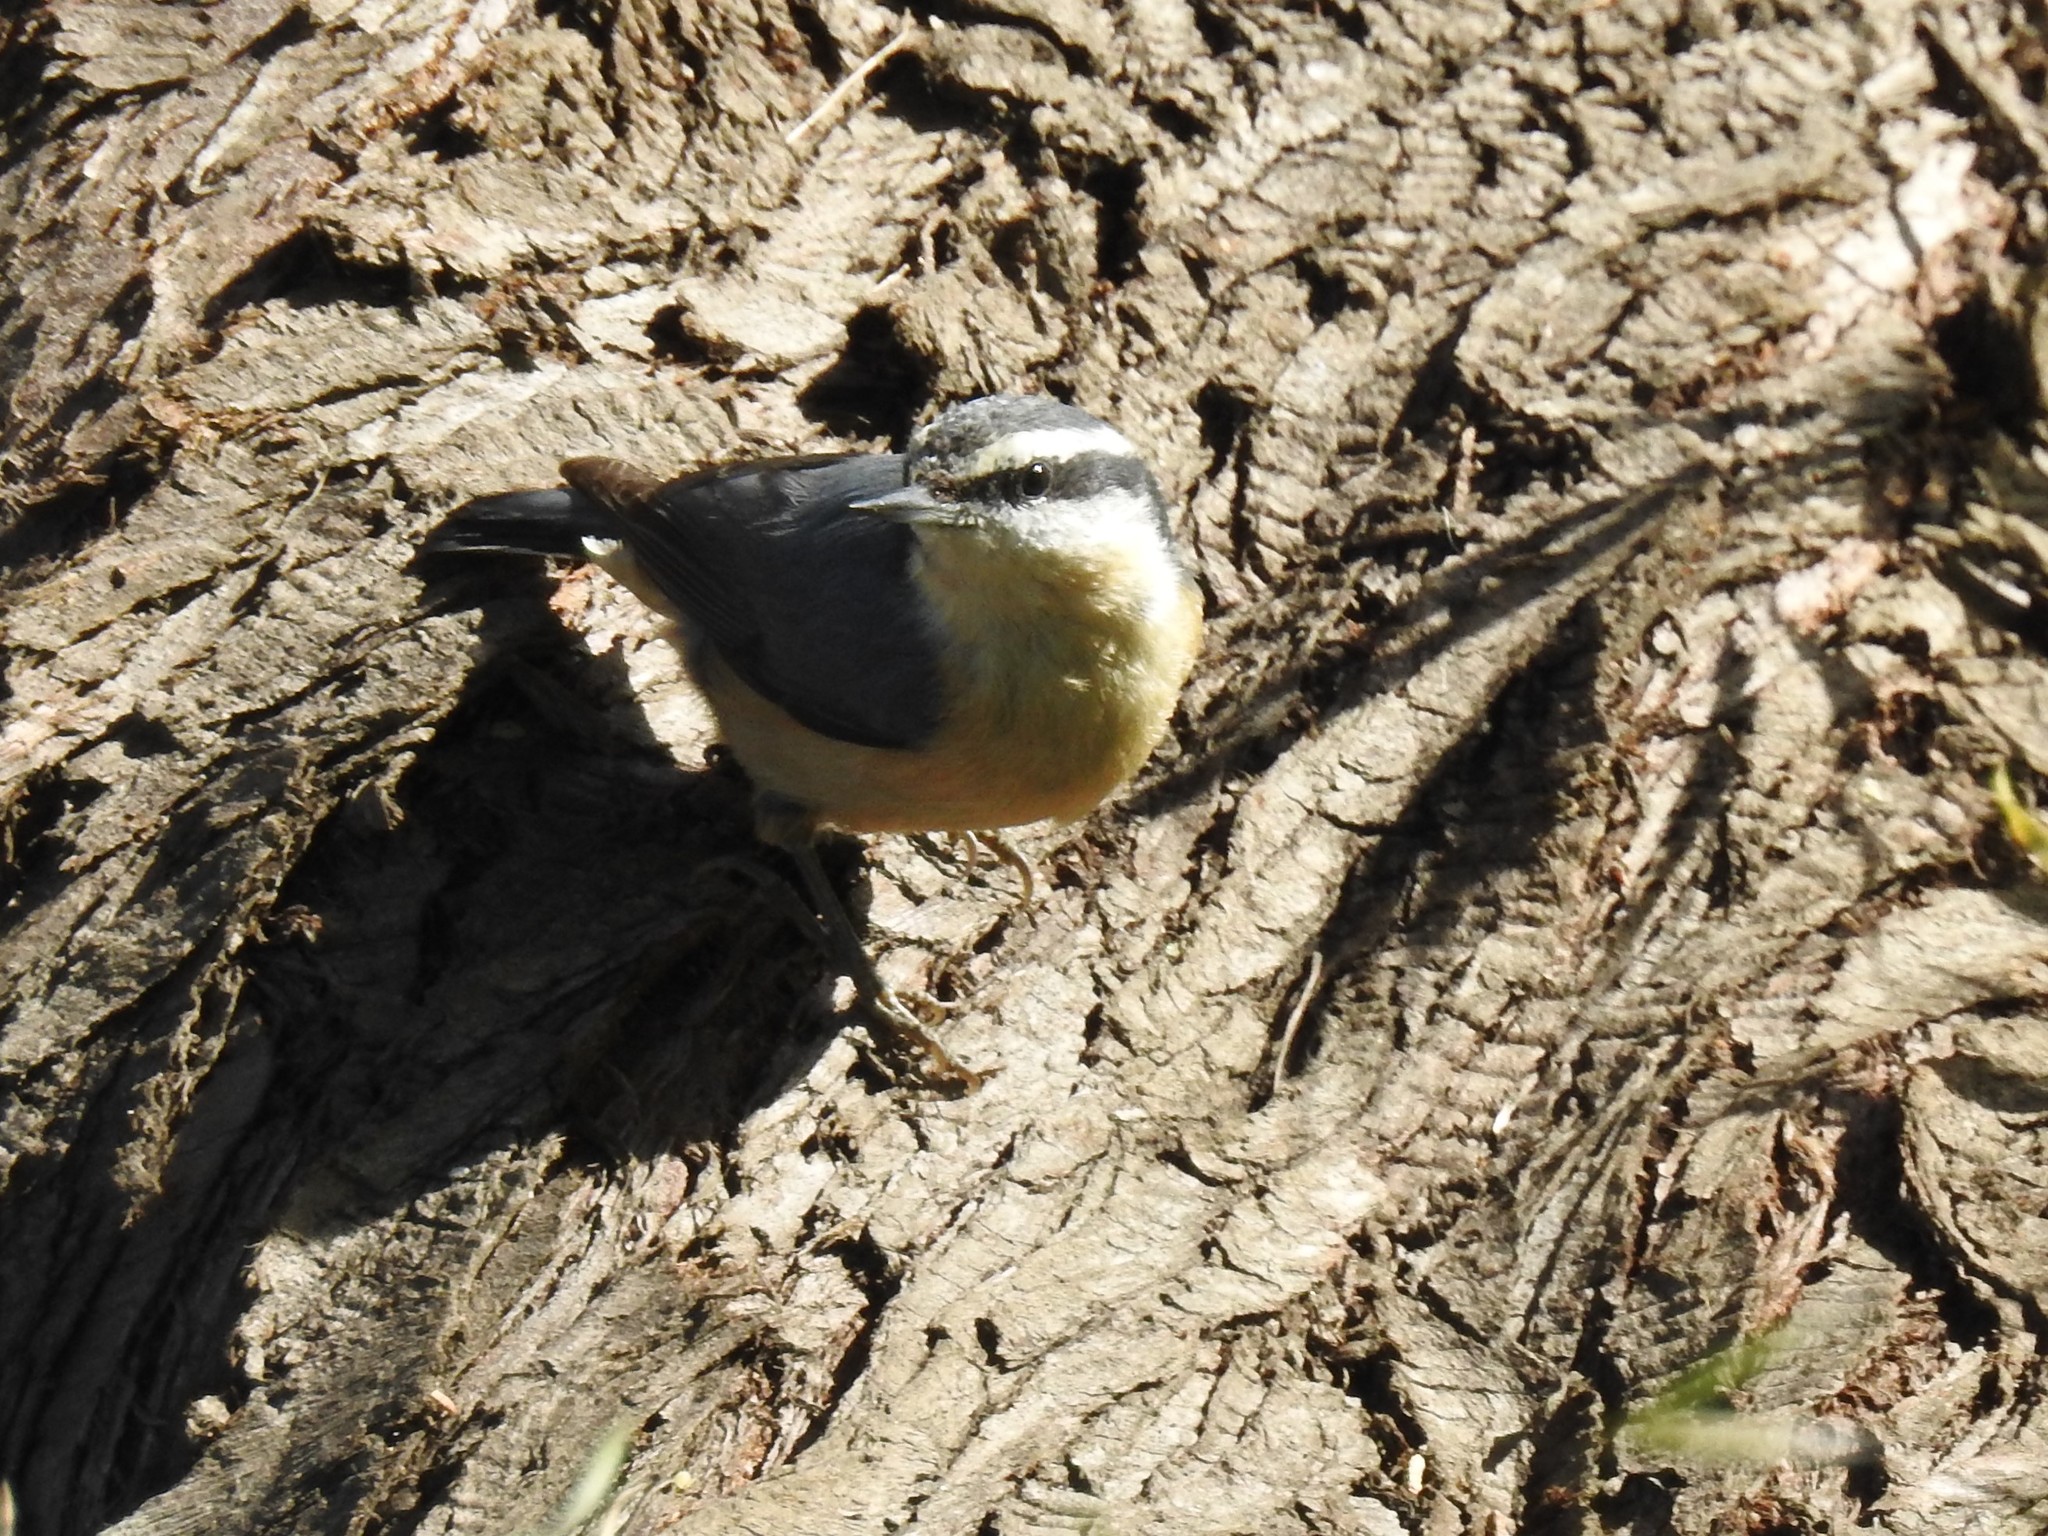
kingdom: Animalia
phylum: Chordata
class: Aves
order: Passeriformes
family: Sittidae
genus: Sitta
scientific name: Sitta canadensis
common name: Red-breasted nuthatch
